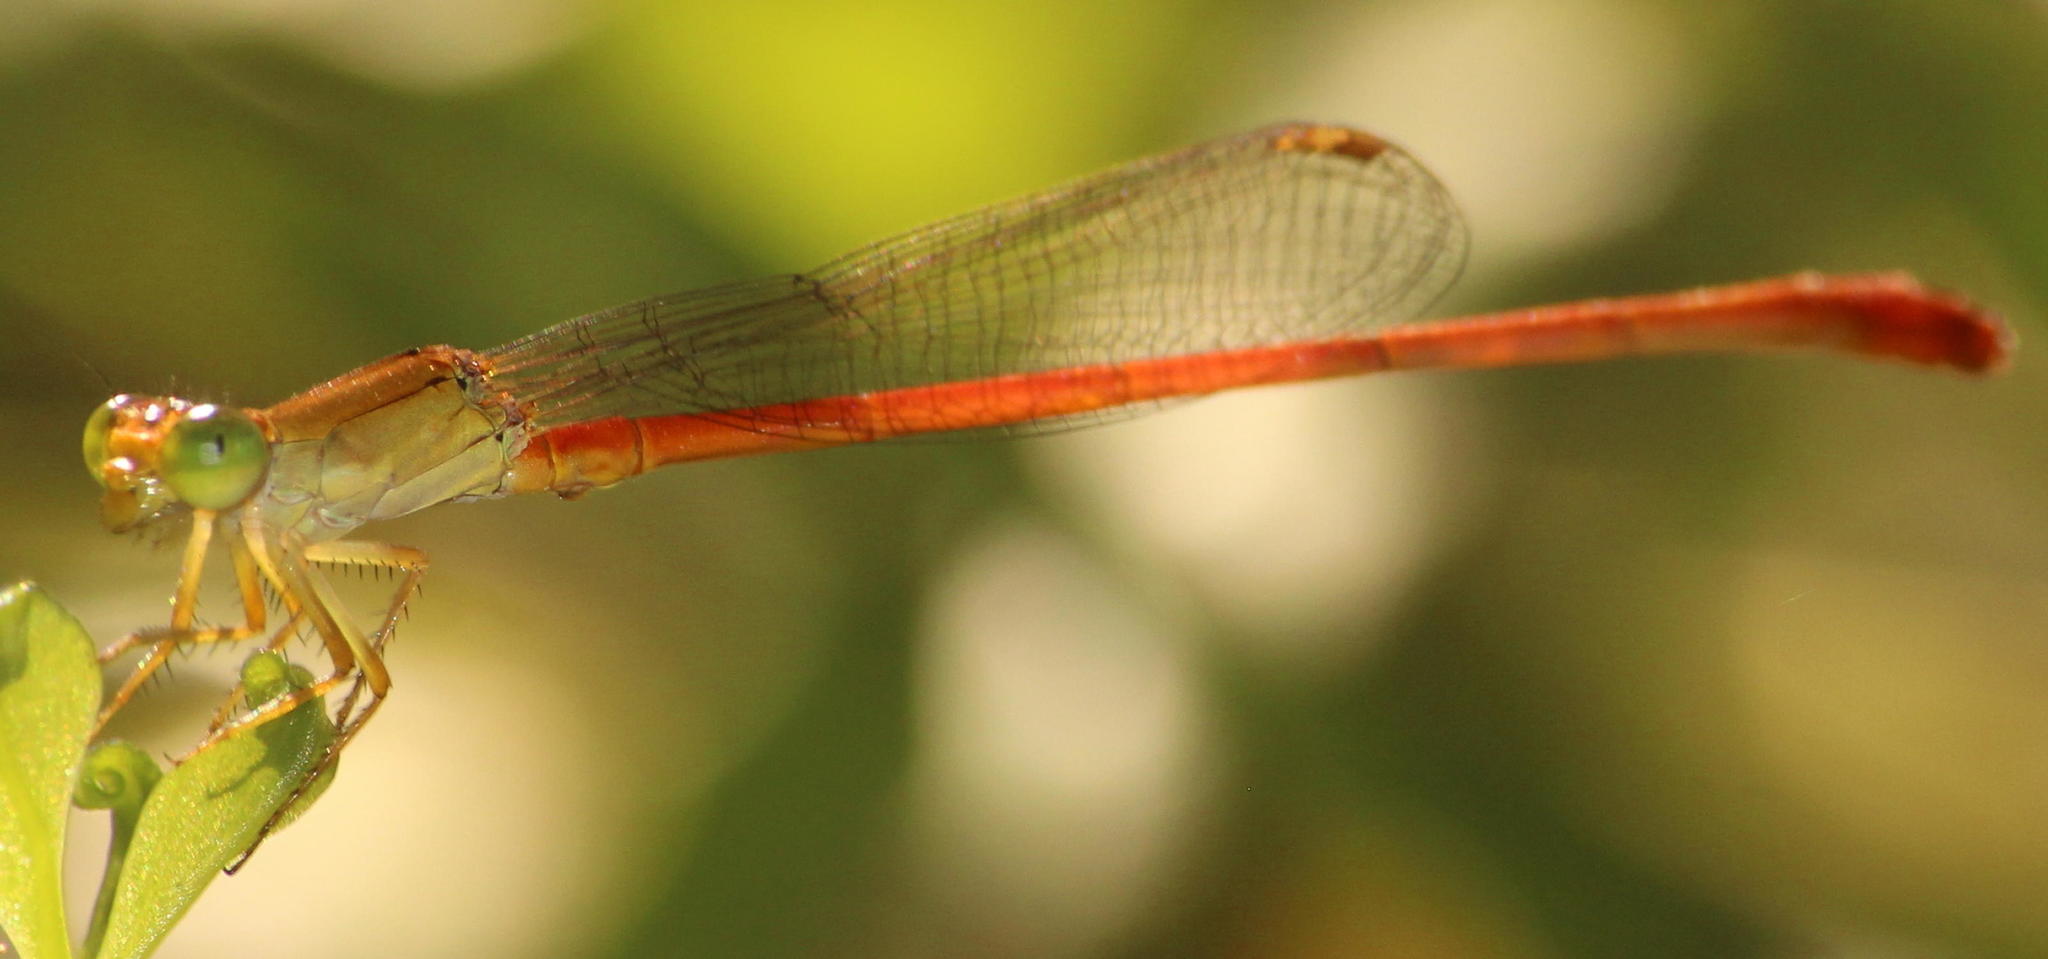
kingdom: Animalia
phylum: Arthropoda
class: Insecta
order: Odonata
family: Coenagrionidae
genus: Ceriagrion
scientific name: Ceriagrion glabrum
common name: Common pond damsel
